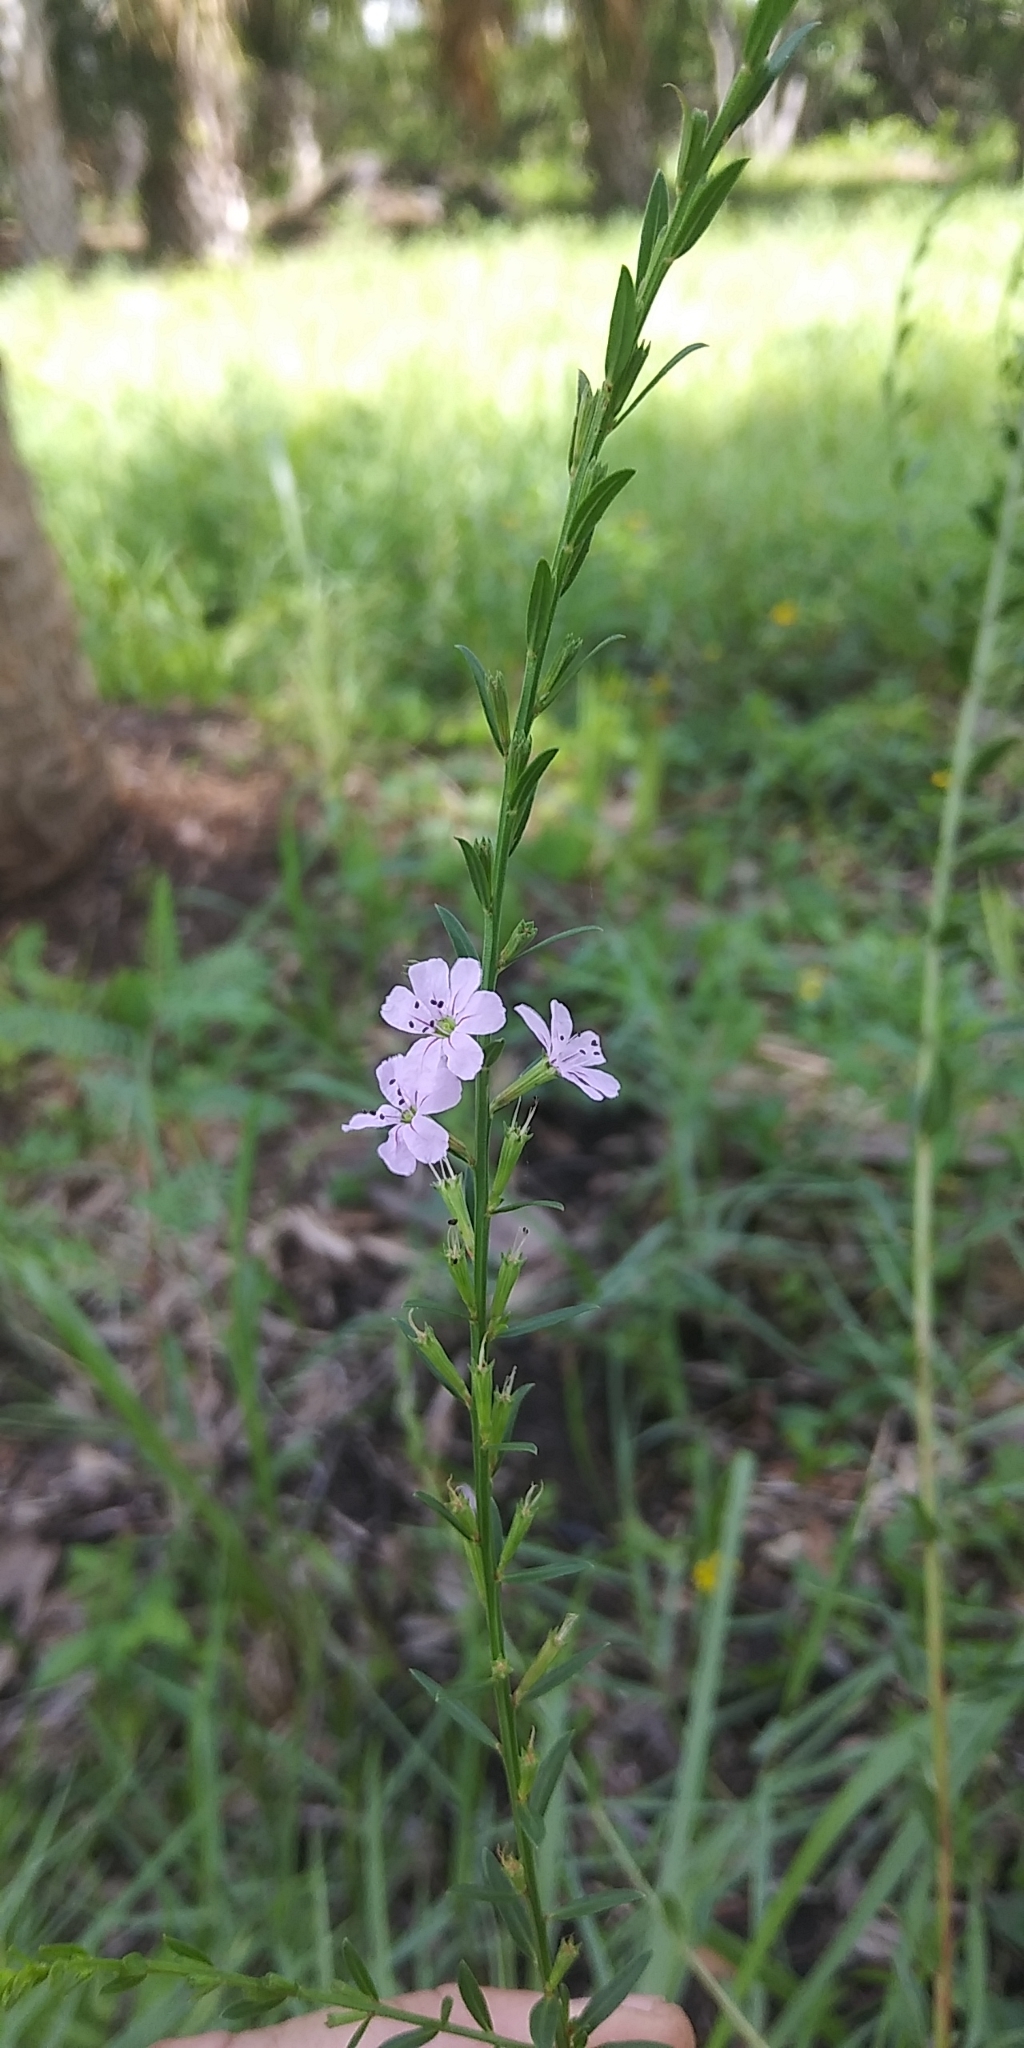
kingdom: Plantae
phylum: Tracheophyta
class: Magnoliopsida
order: Myrtales
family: Lythraceae
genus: Lythrum
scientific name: Lythrum alatum
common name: Winged loosestrife
